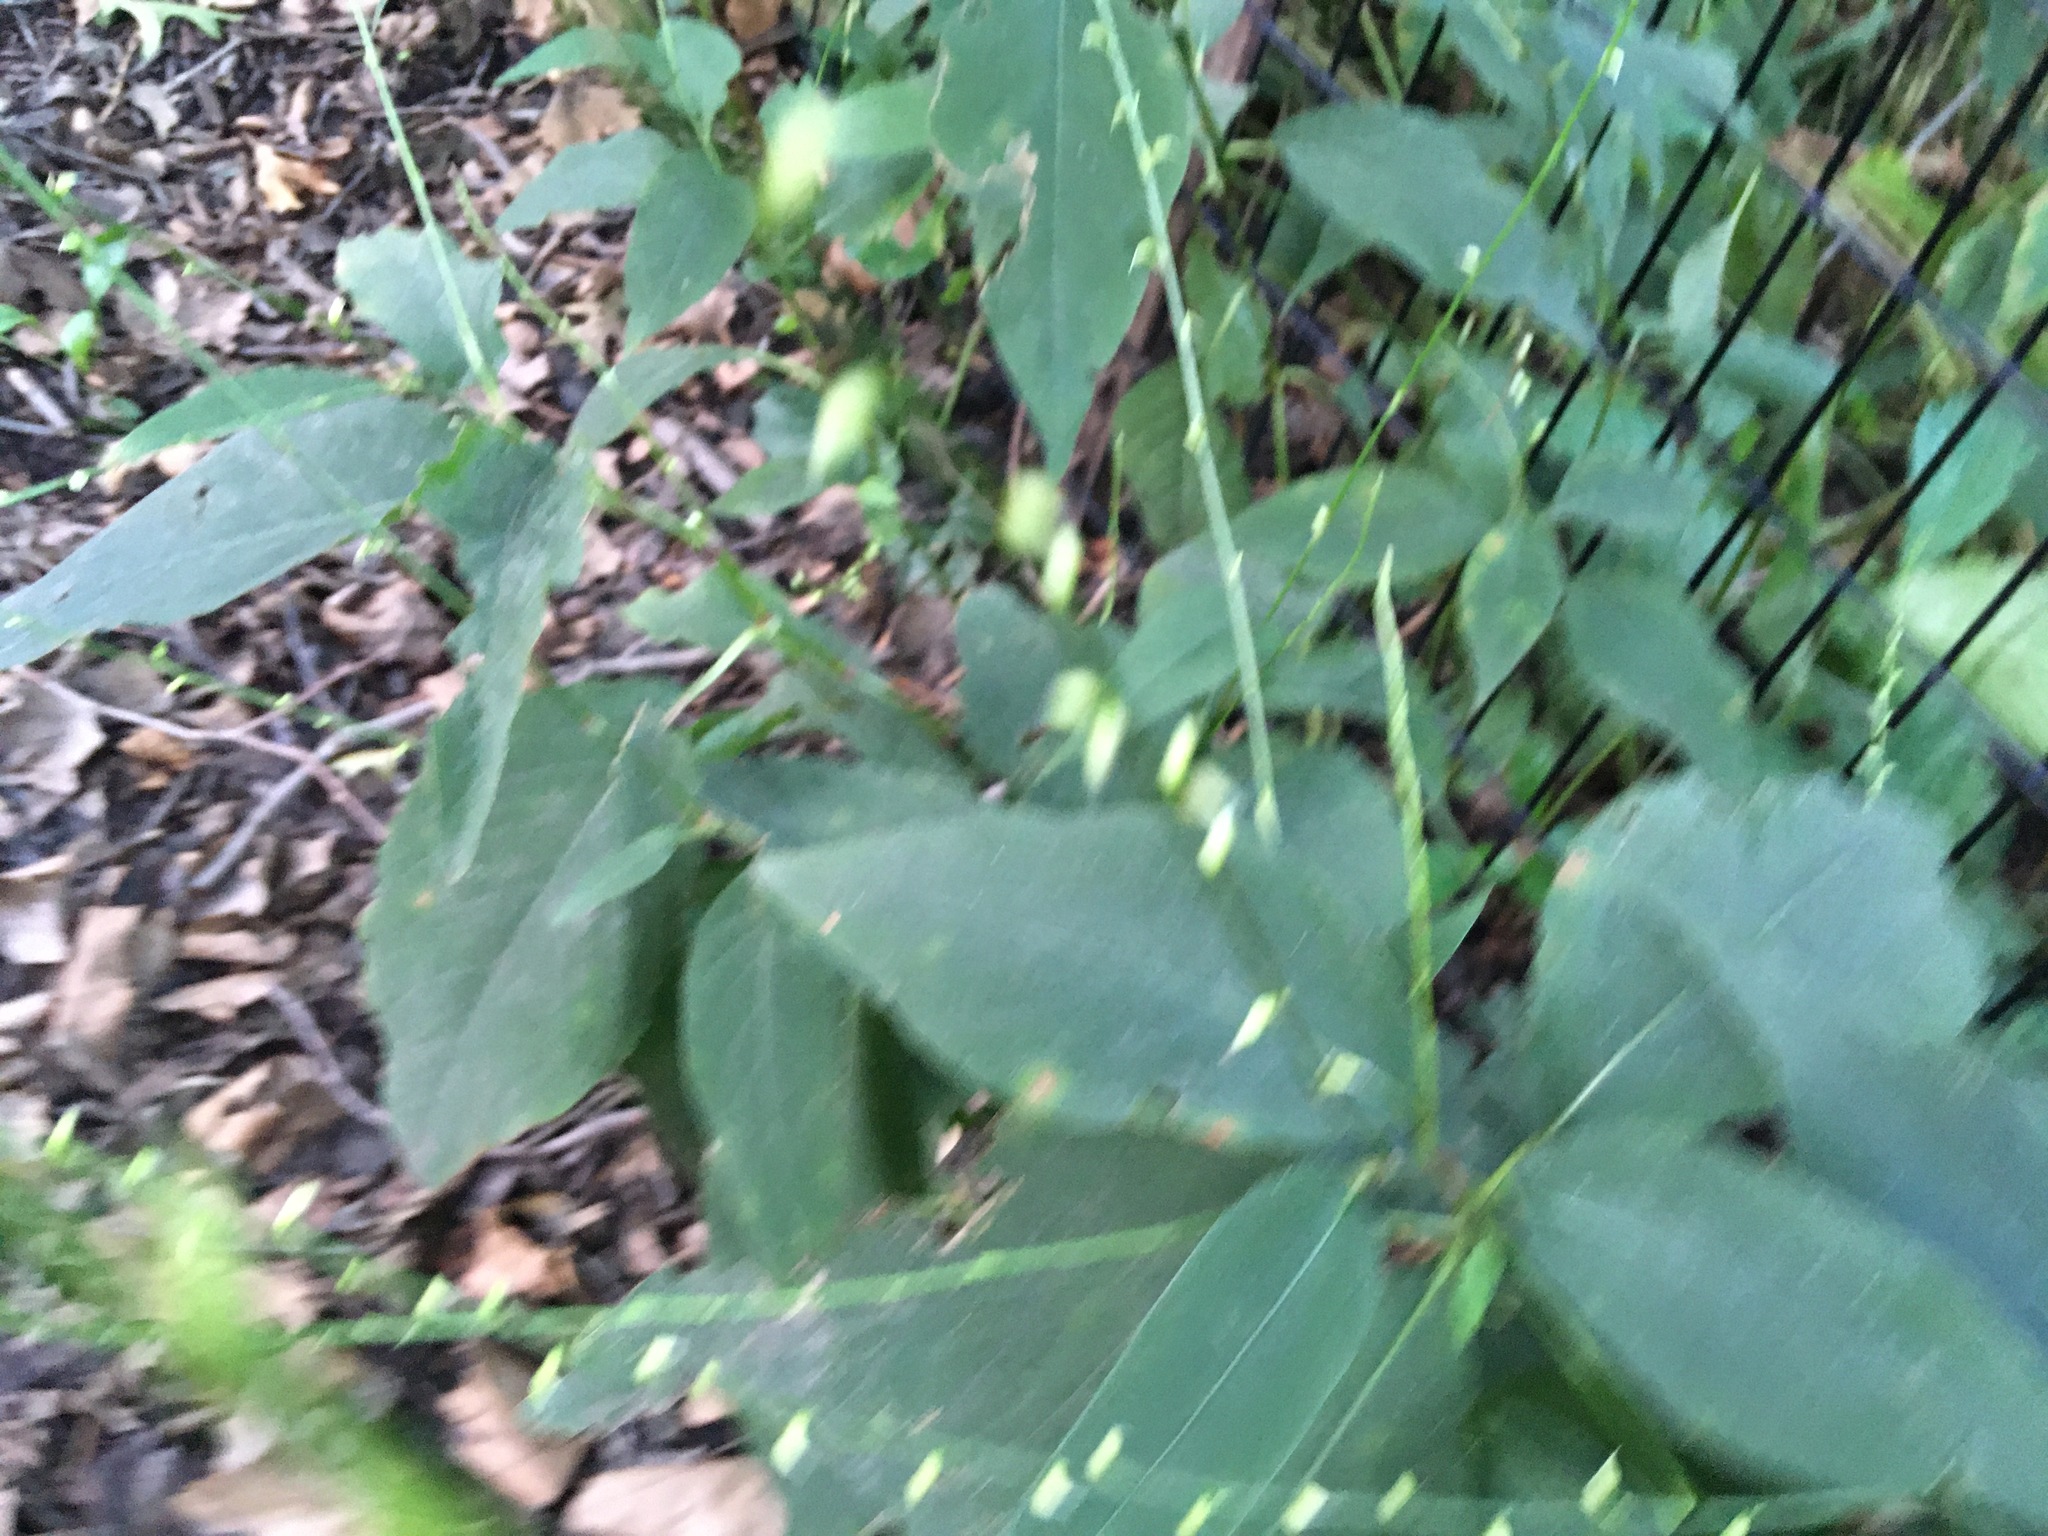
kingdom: Plantae
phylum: Tracheophyta
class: Magnoliopsida
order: Caryophyllales
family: Polygonaceae
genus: Persicaria
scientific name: Persicaria virginiana
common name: Jumpseed
